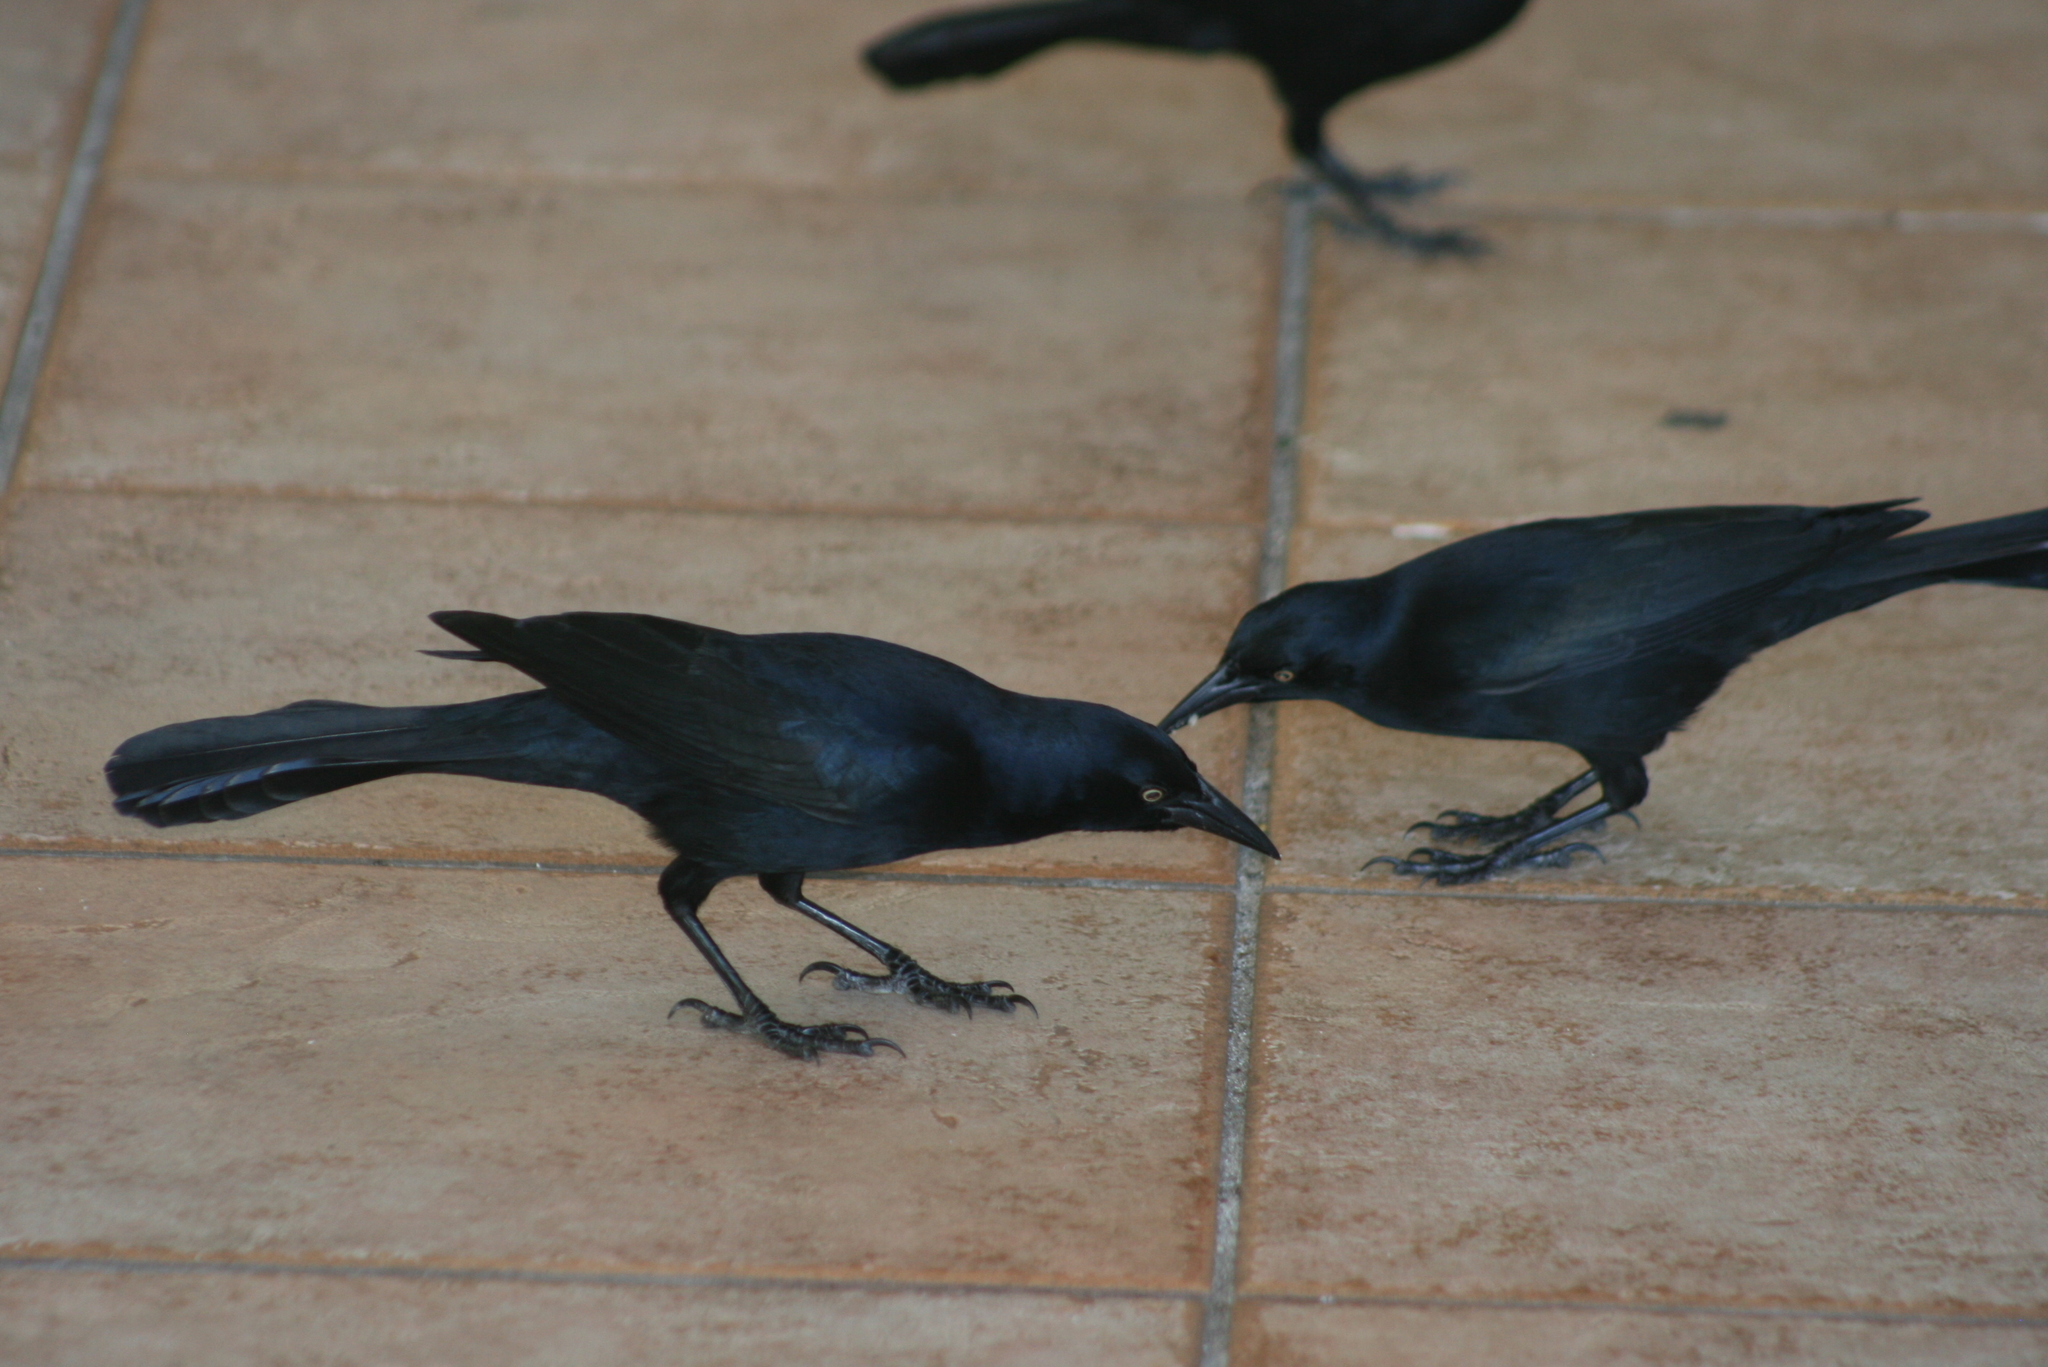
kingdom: Animalia
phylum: Chordata
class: Aves
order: Passeriformes
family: Icteridae
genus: Quiscalus
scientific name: Quiscalus niger
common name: Greater antillean grackle
